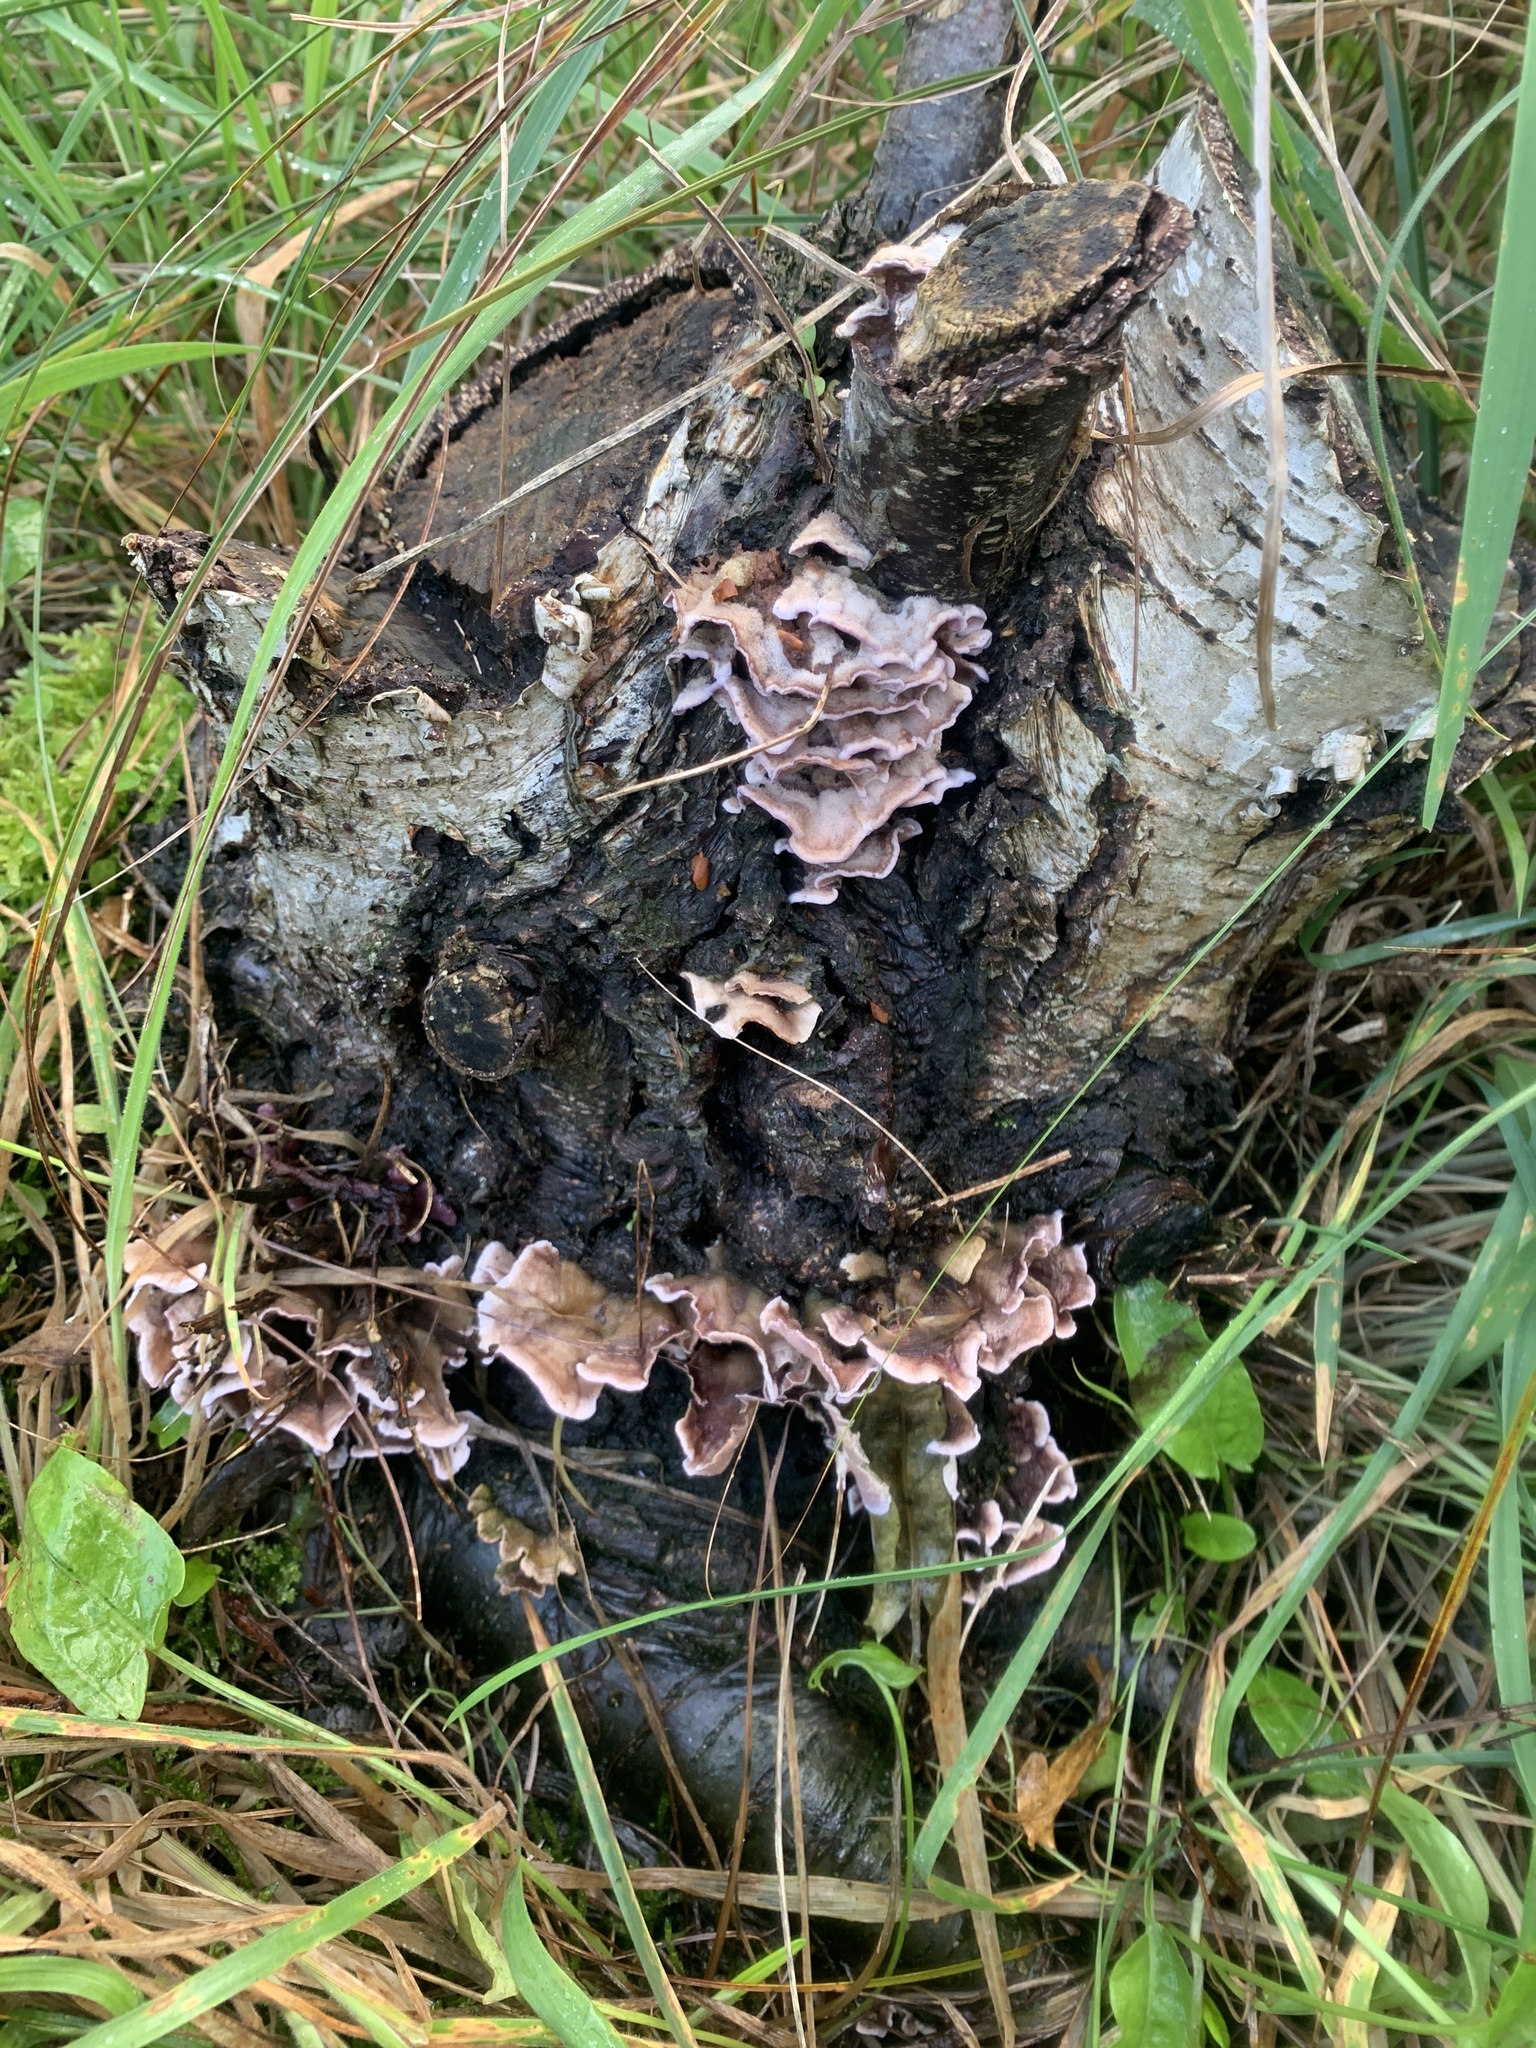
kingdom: Fungi
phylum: Basidiomycota
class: Agaricomycetes
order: Agaricales
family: Cyphellaceae
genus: Chondrostereum
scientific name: Chondrostereum purpureum
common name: Silver leaf disease
